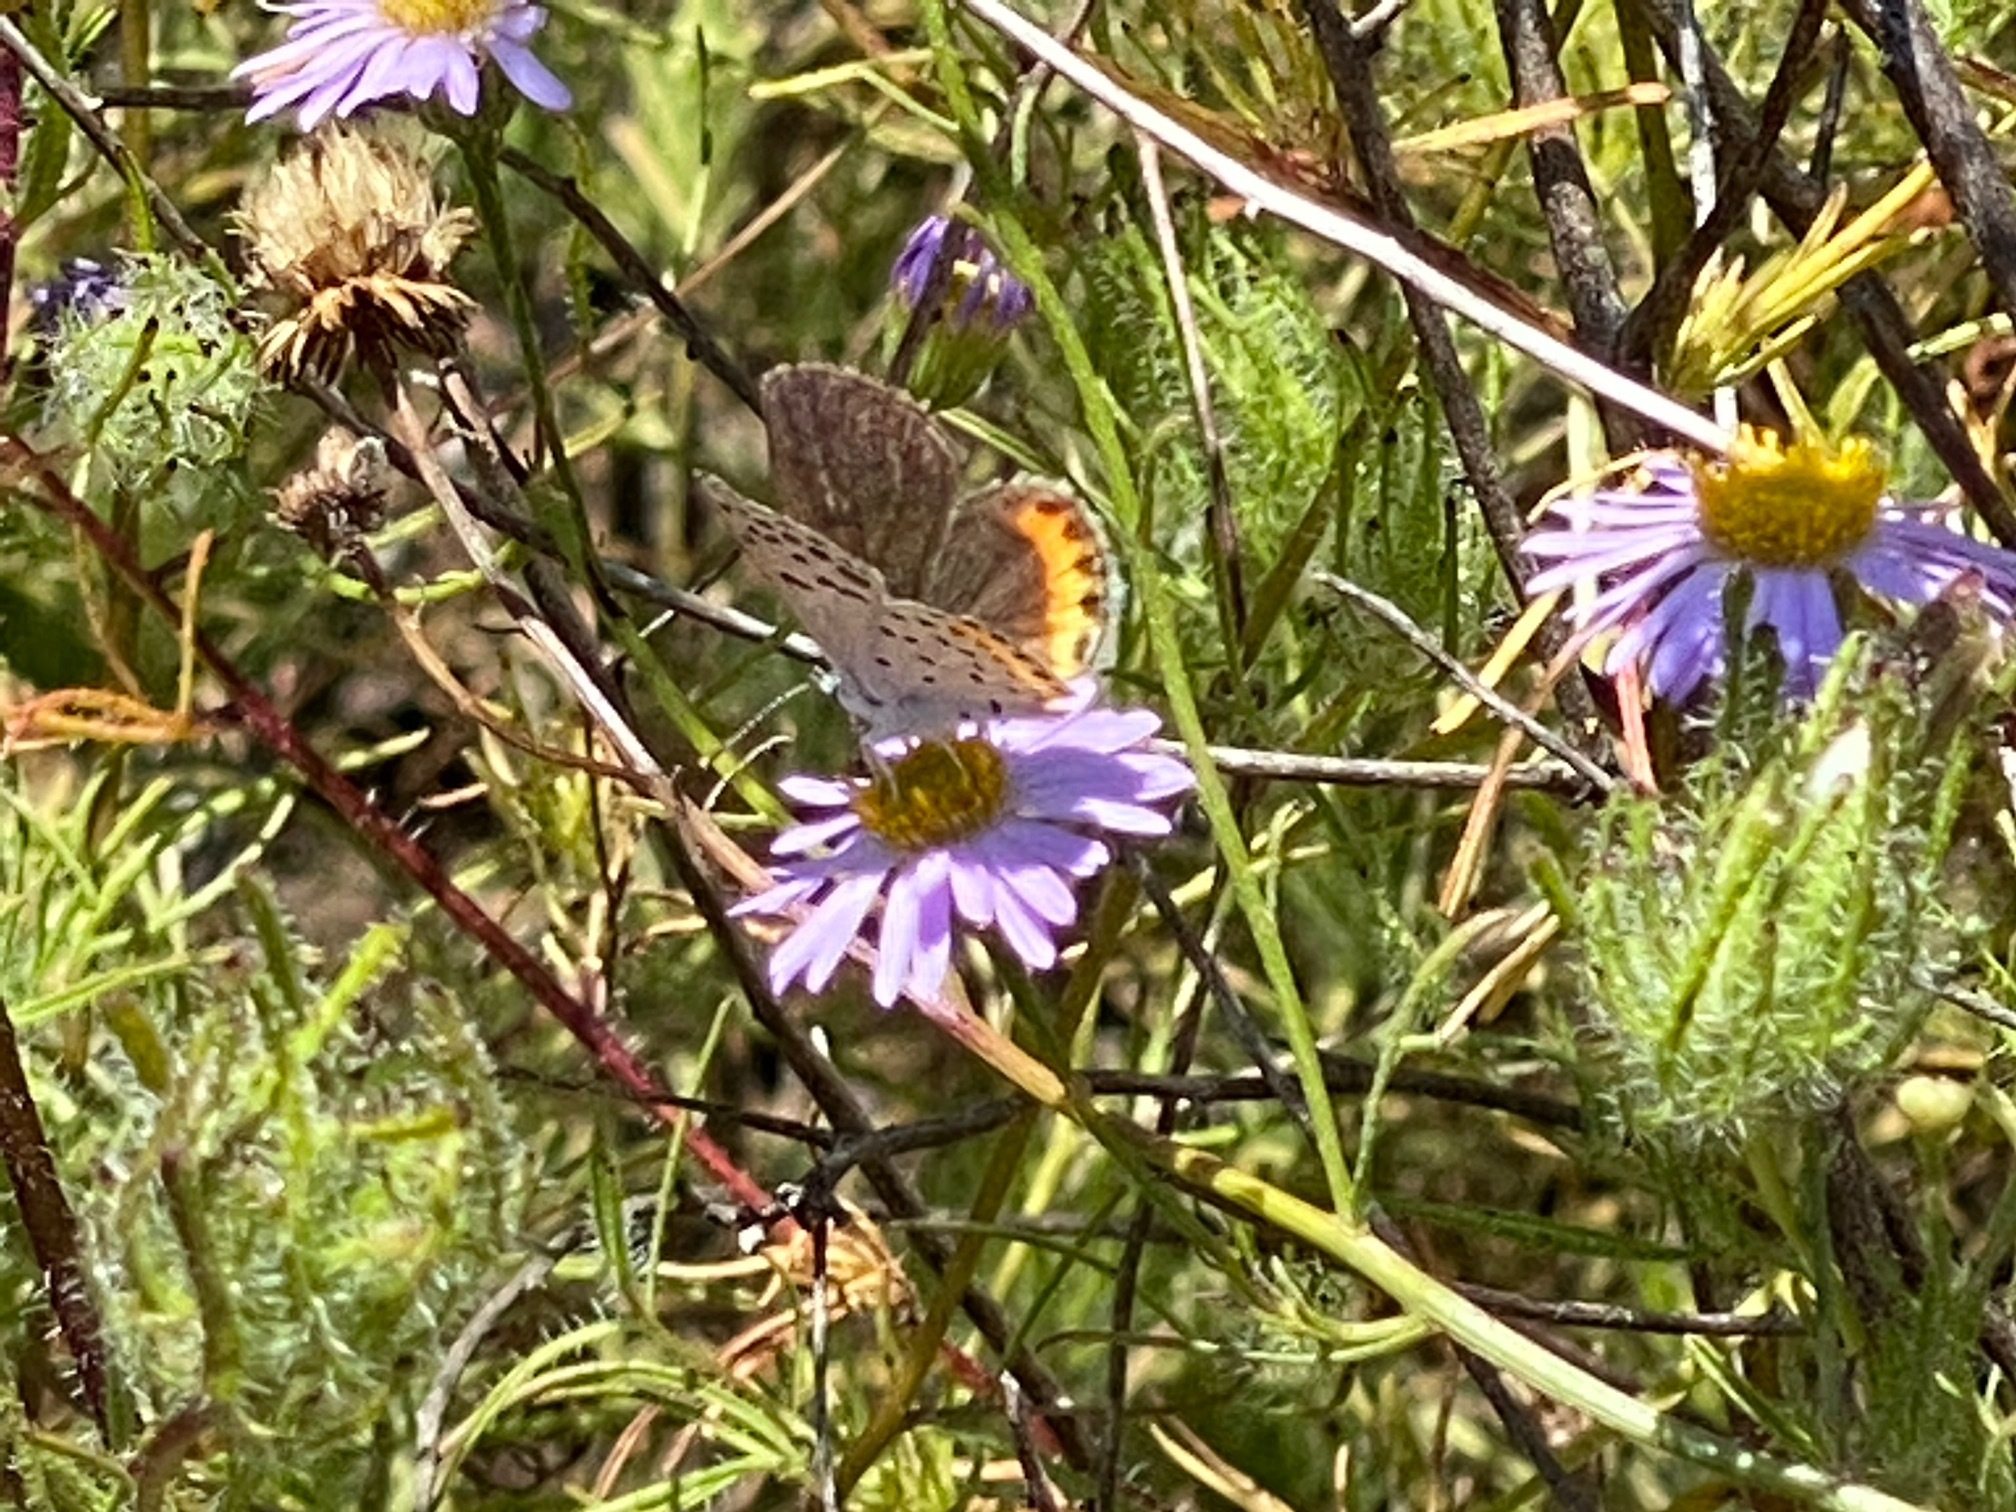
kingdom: Animalia
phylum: Arthropoda
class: Insecta
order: Lepidoptera
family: Lycaenidae
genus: Icaricia
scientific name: Icaricia acmon
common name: Acmon blue
